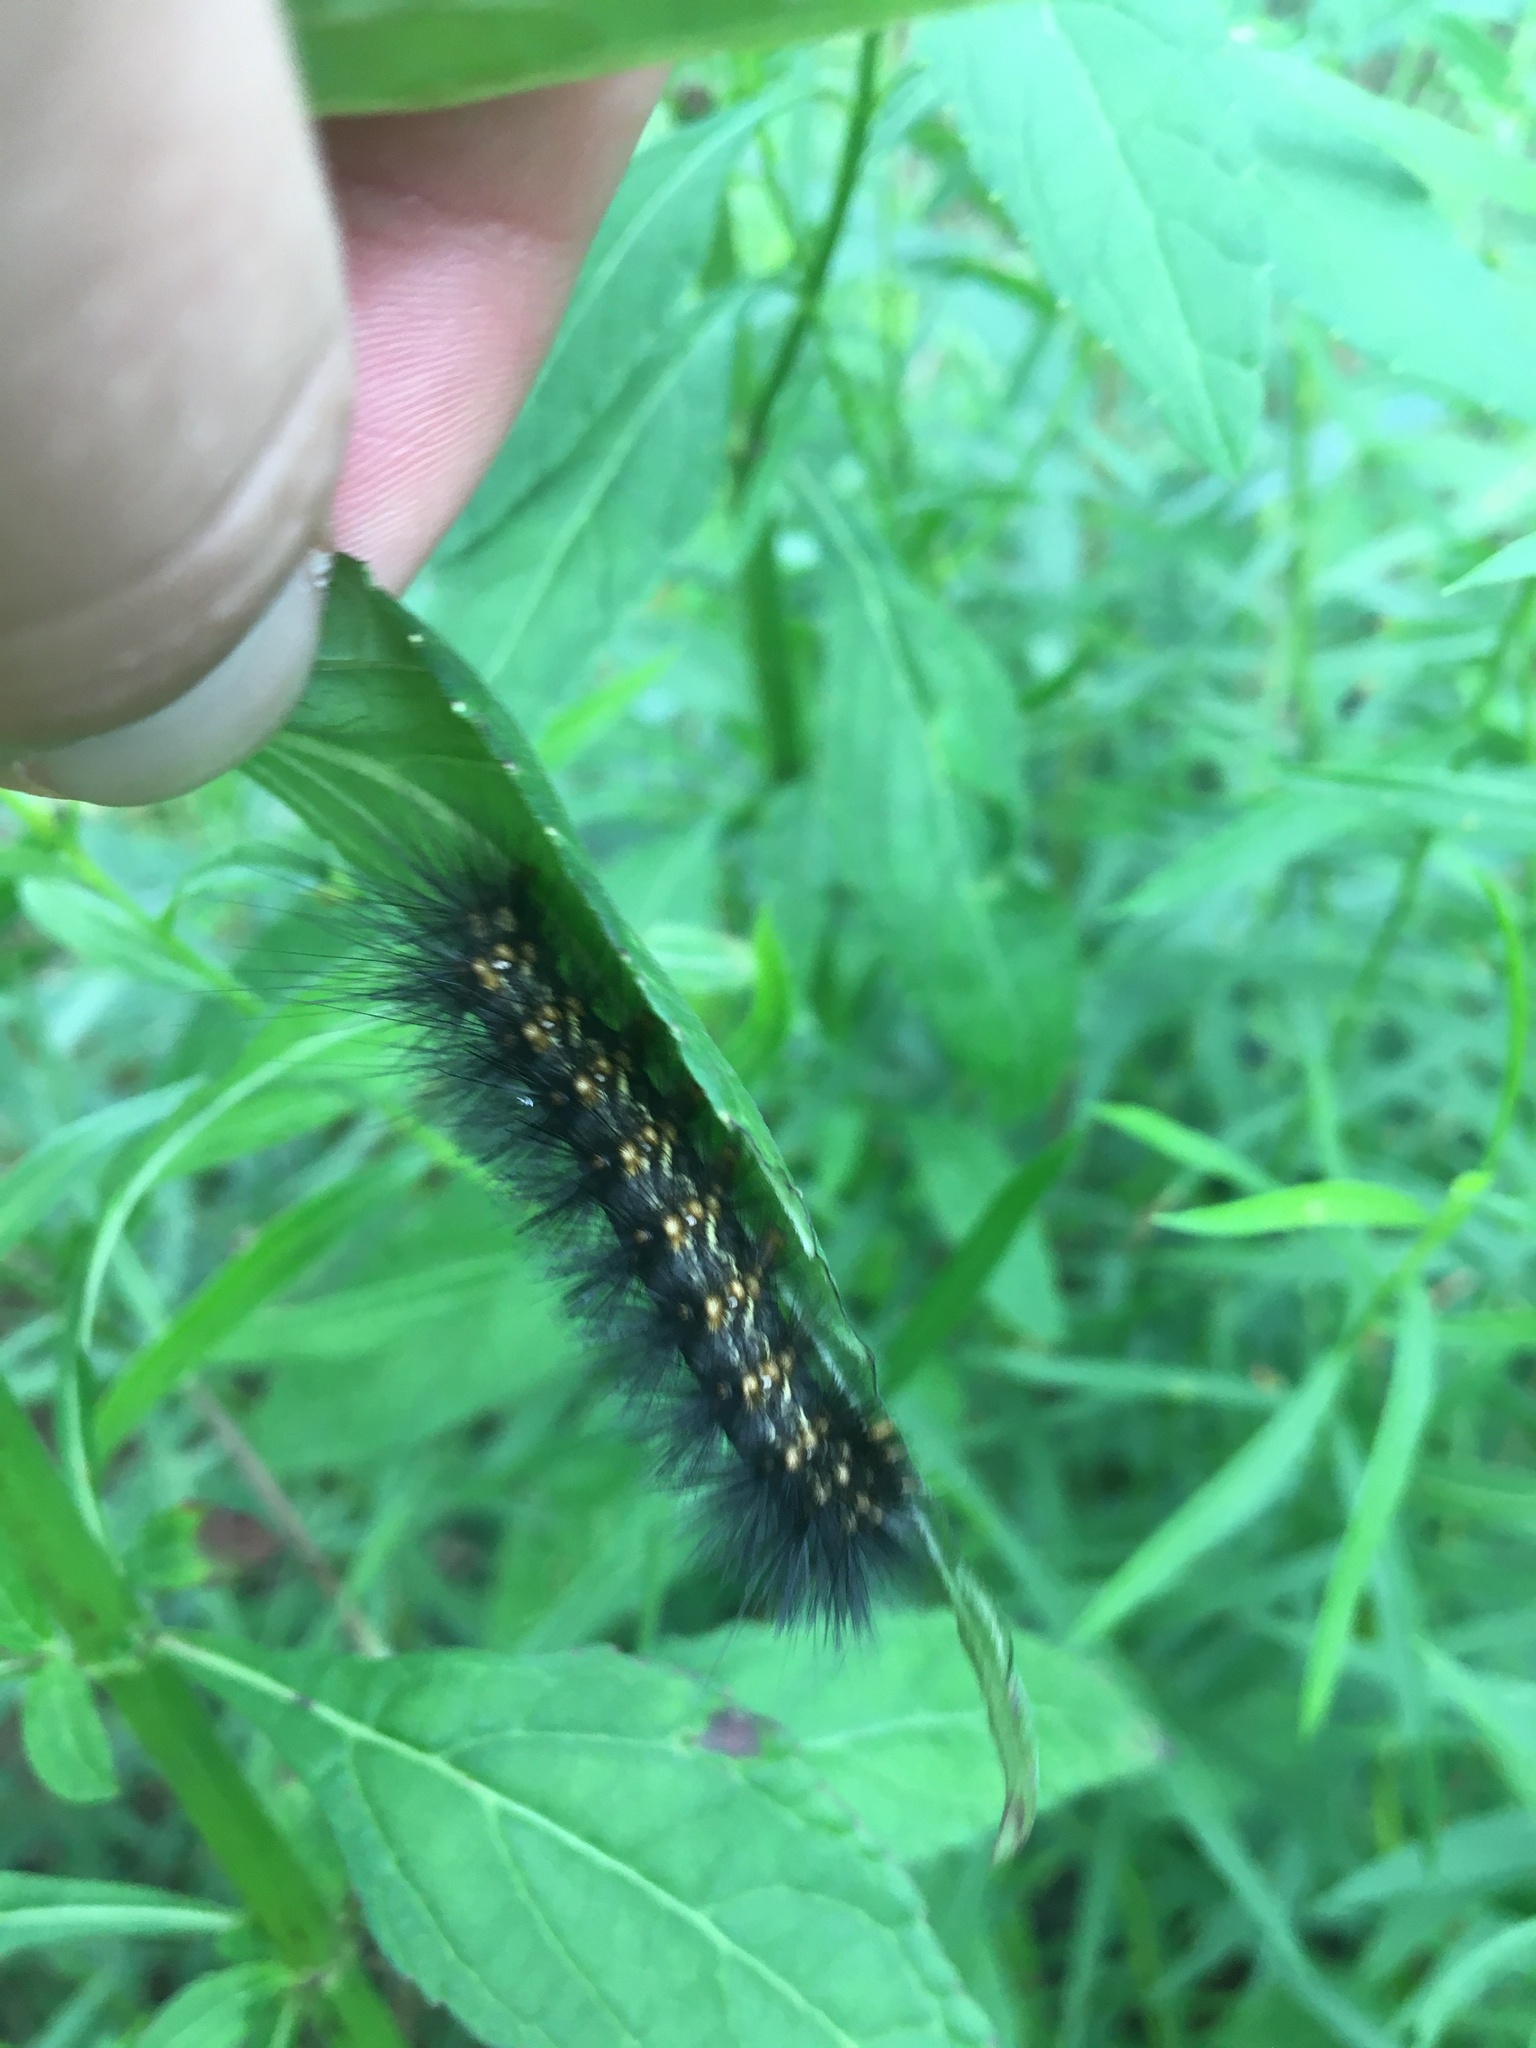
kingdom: Animalia
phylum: Arthropoda
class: Insecta
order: Lepidoptera
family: Erebidae
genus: Estigmene
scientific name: Estigmene acrea
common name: Salt marsh moth
